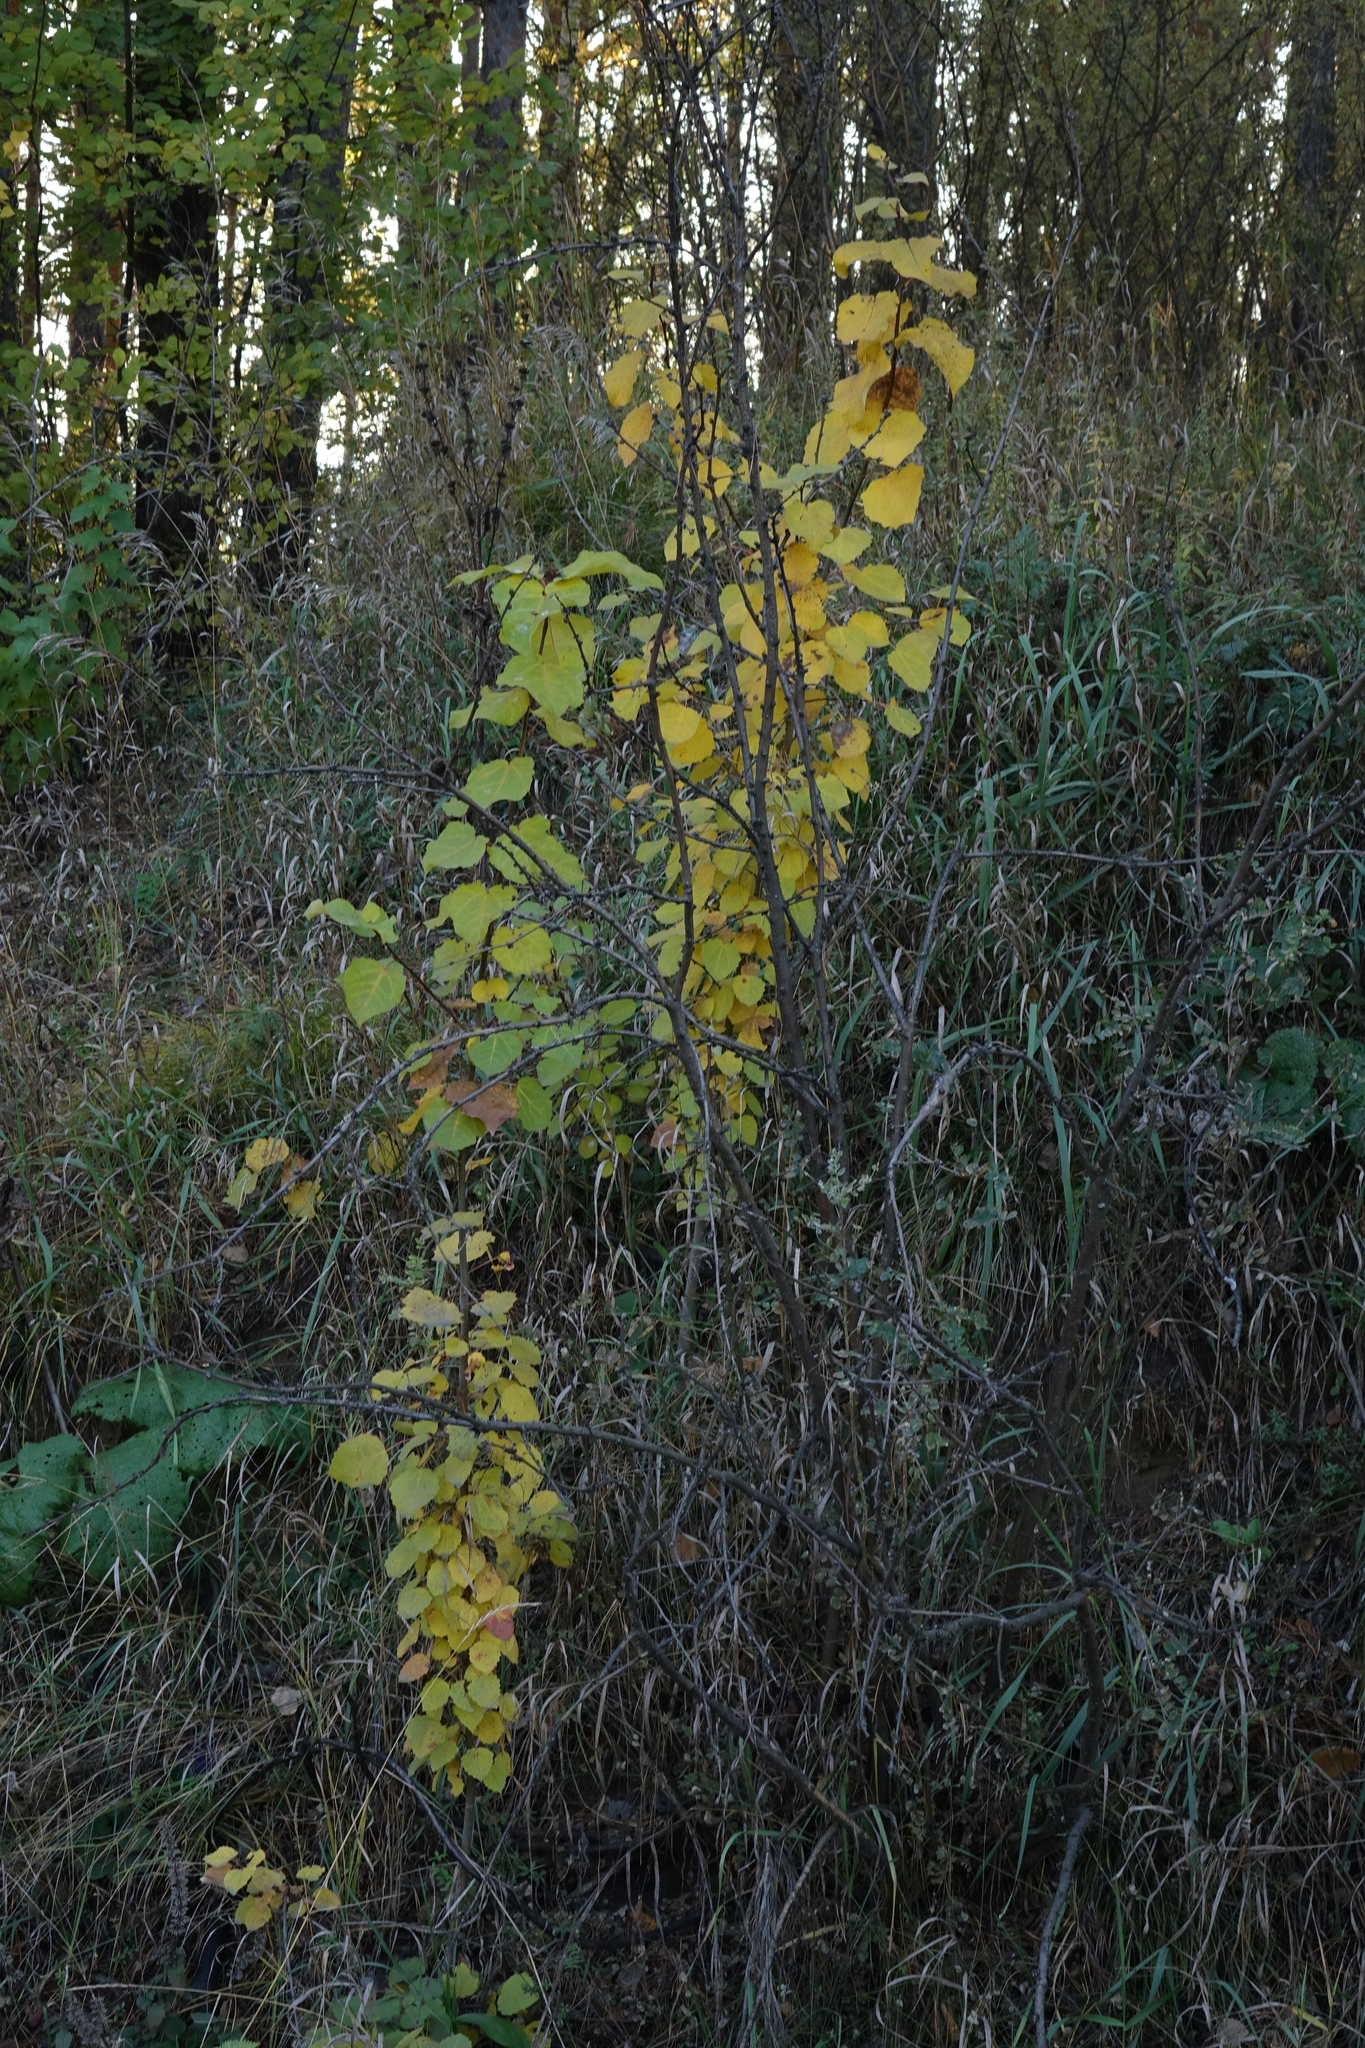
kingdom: Plantae
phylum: Tracheophyta
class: Magnoliopsida
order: Malpighiales
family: Salicaceae
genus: Populus
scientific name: Populus tremula
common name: European aspen
